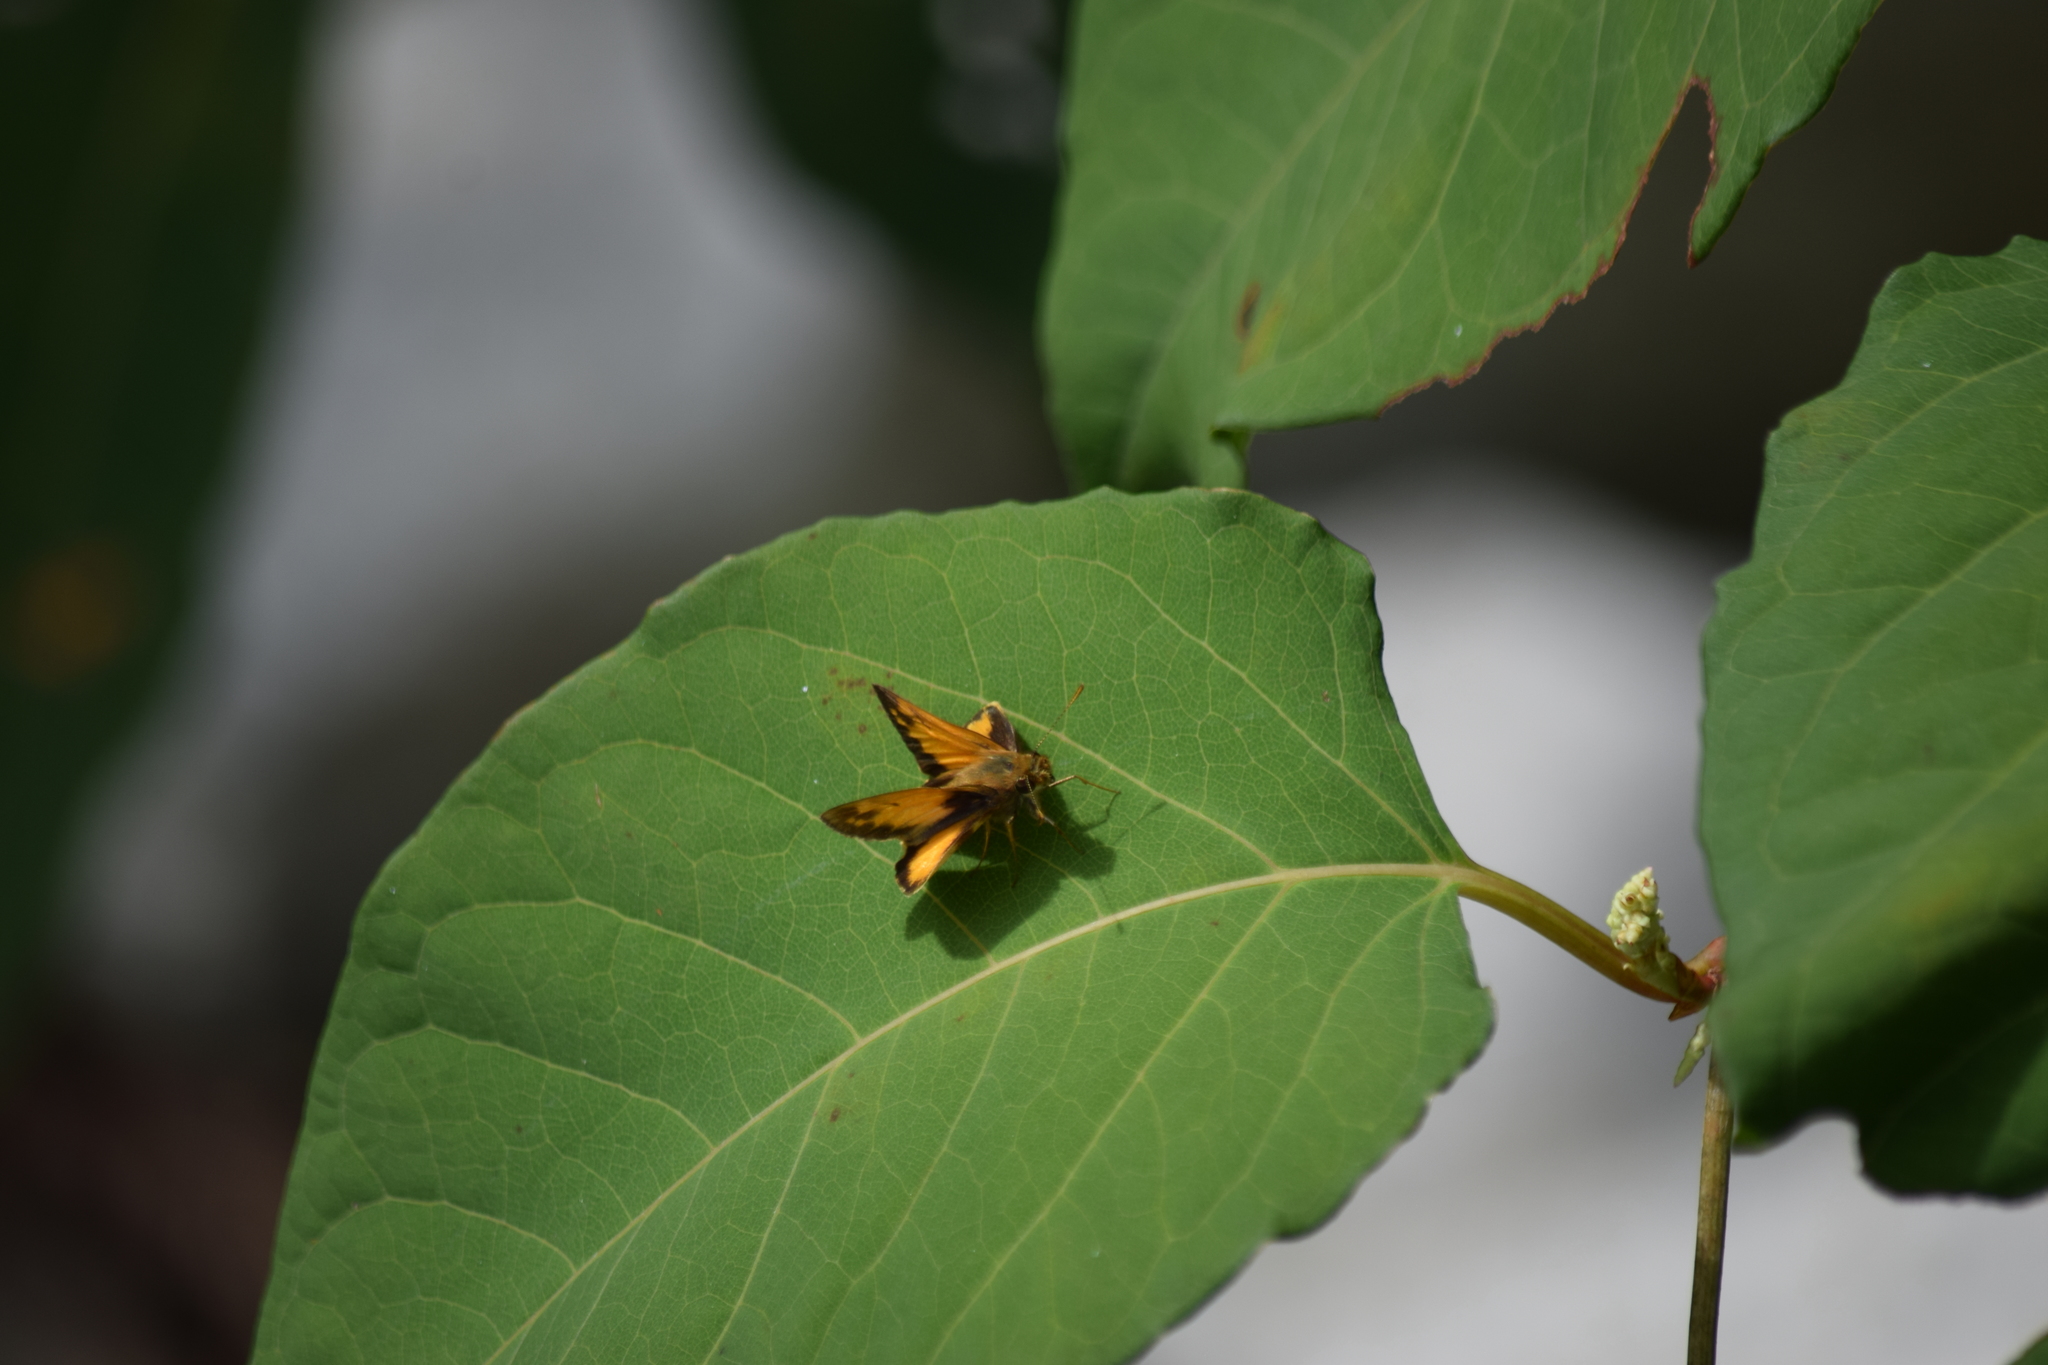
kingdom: Animalia
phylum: Arthropoda
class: Insecta
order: Lepidoptera
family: Hesperiidae
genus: Lon
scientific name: Lon zabulon
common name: Zabulon skipper
